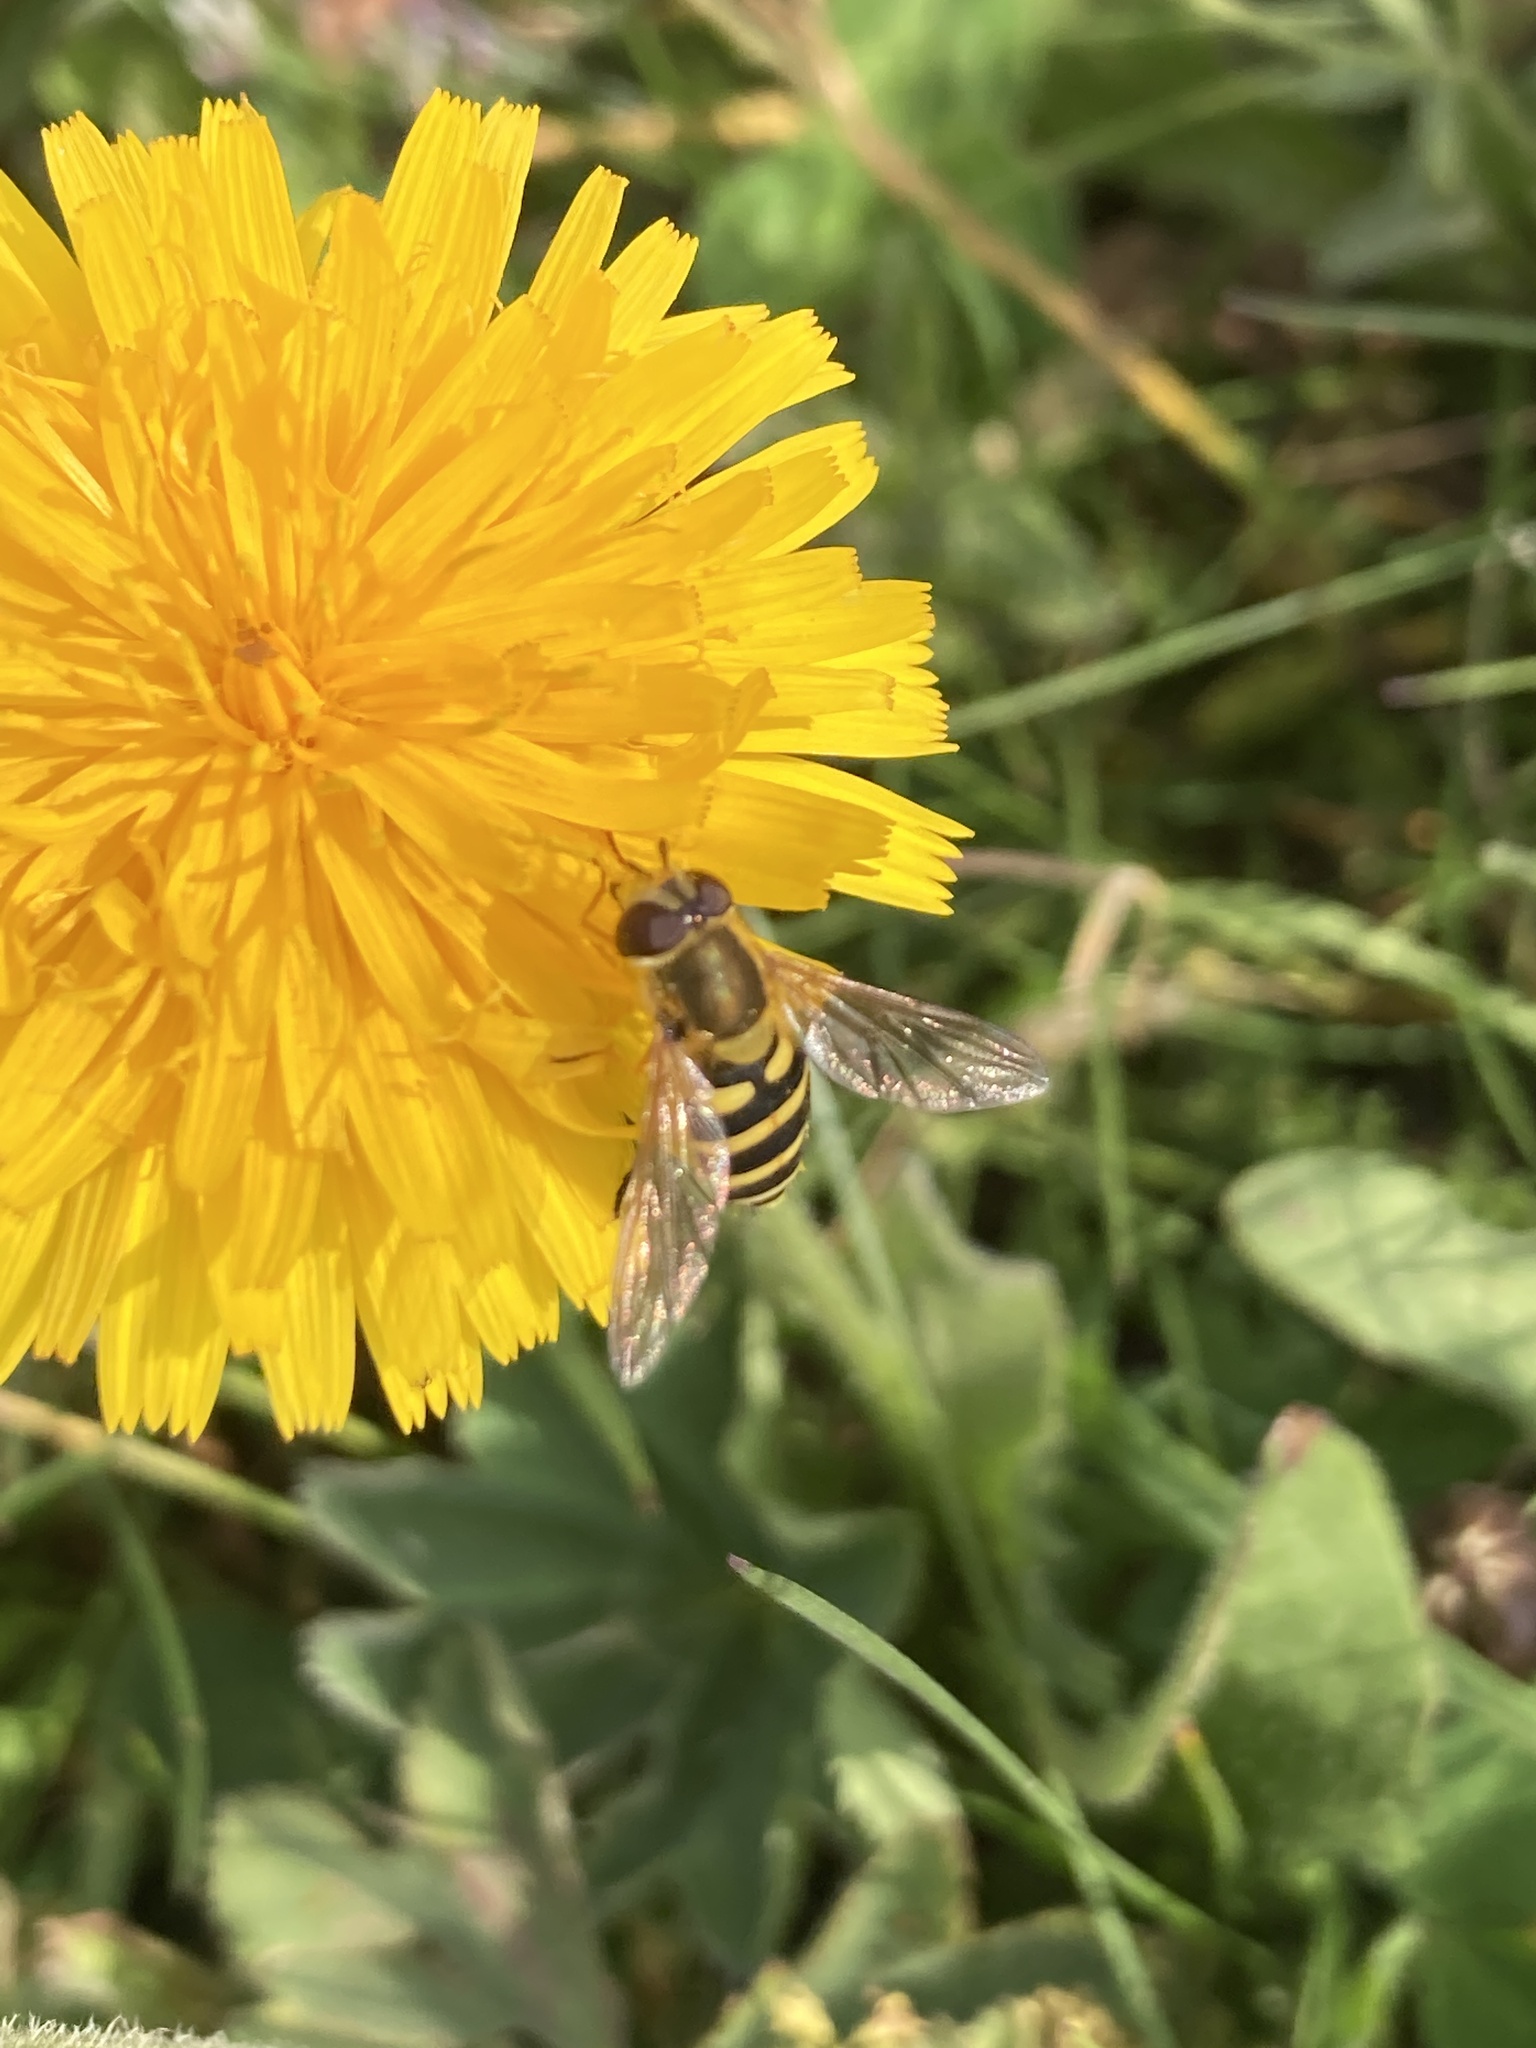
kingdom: Animalia
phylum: Arthropoda
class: Insecta
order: Diptera
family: Syrphidae
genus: Syrphus
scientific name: Syrphus
